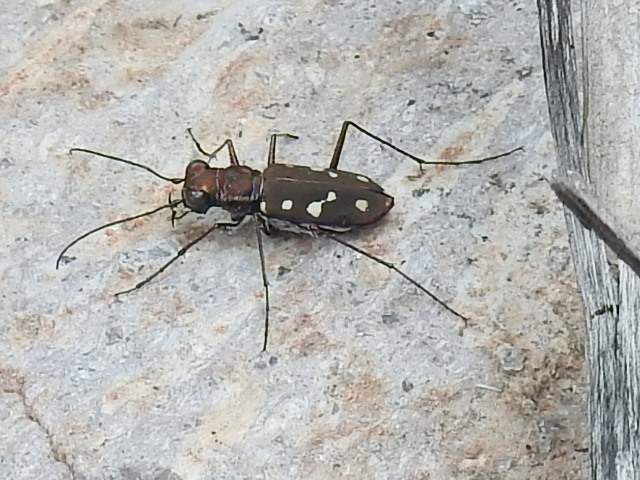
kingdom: Animalia
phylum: Arthropoda
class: Insecta
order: Coleoptera
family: Carabidae
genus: Cicindela
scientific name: Cicindela sedecimpunctata
